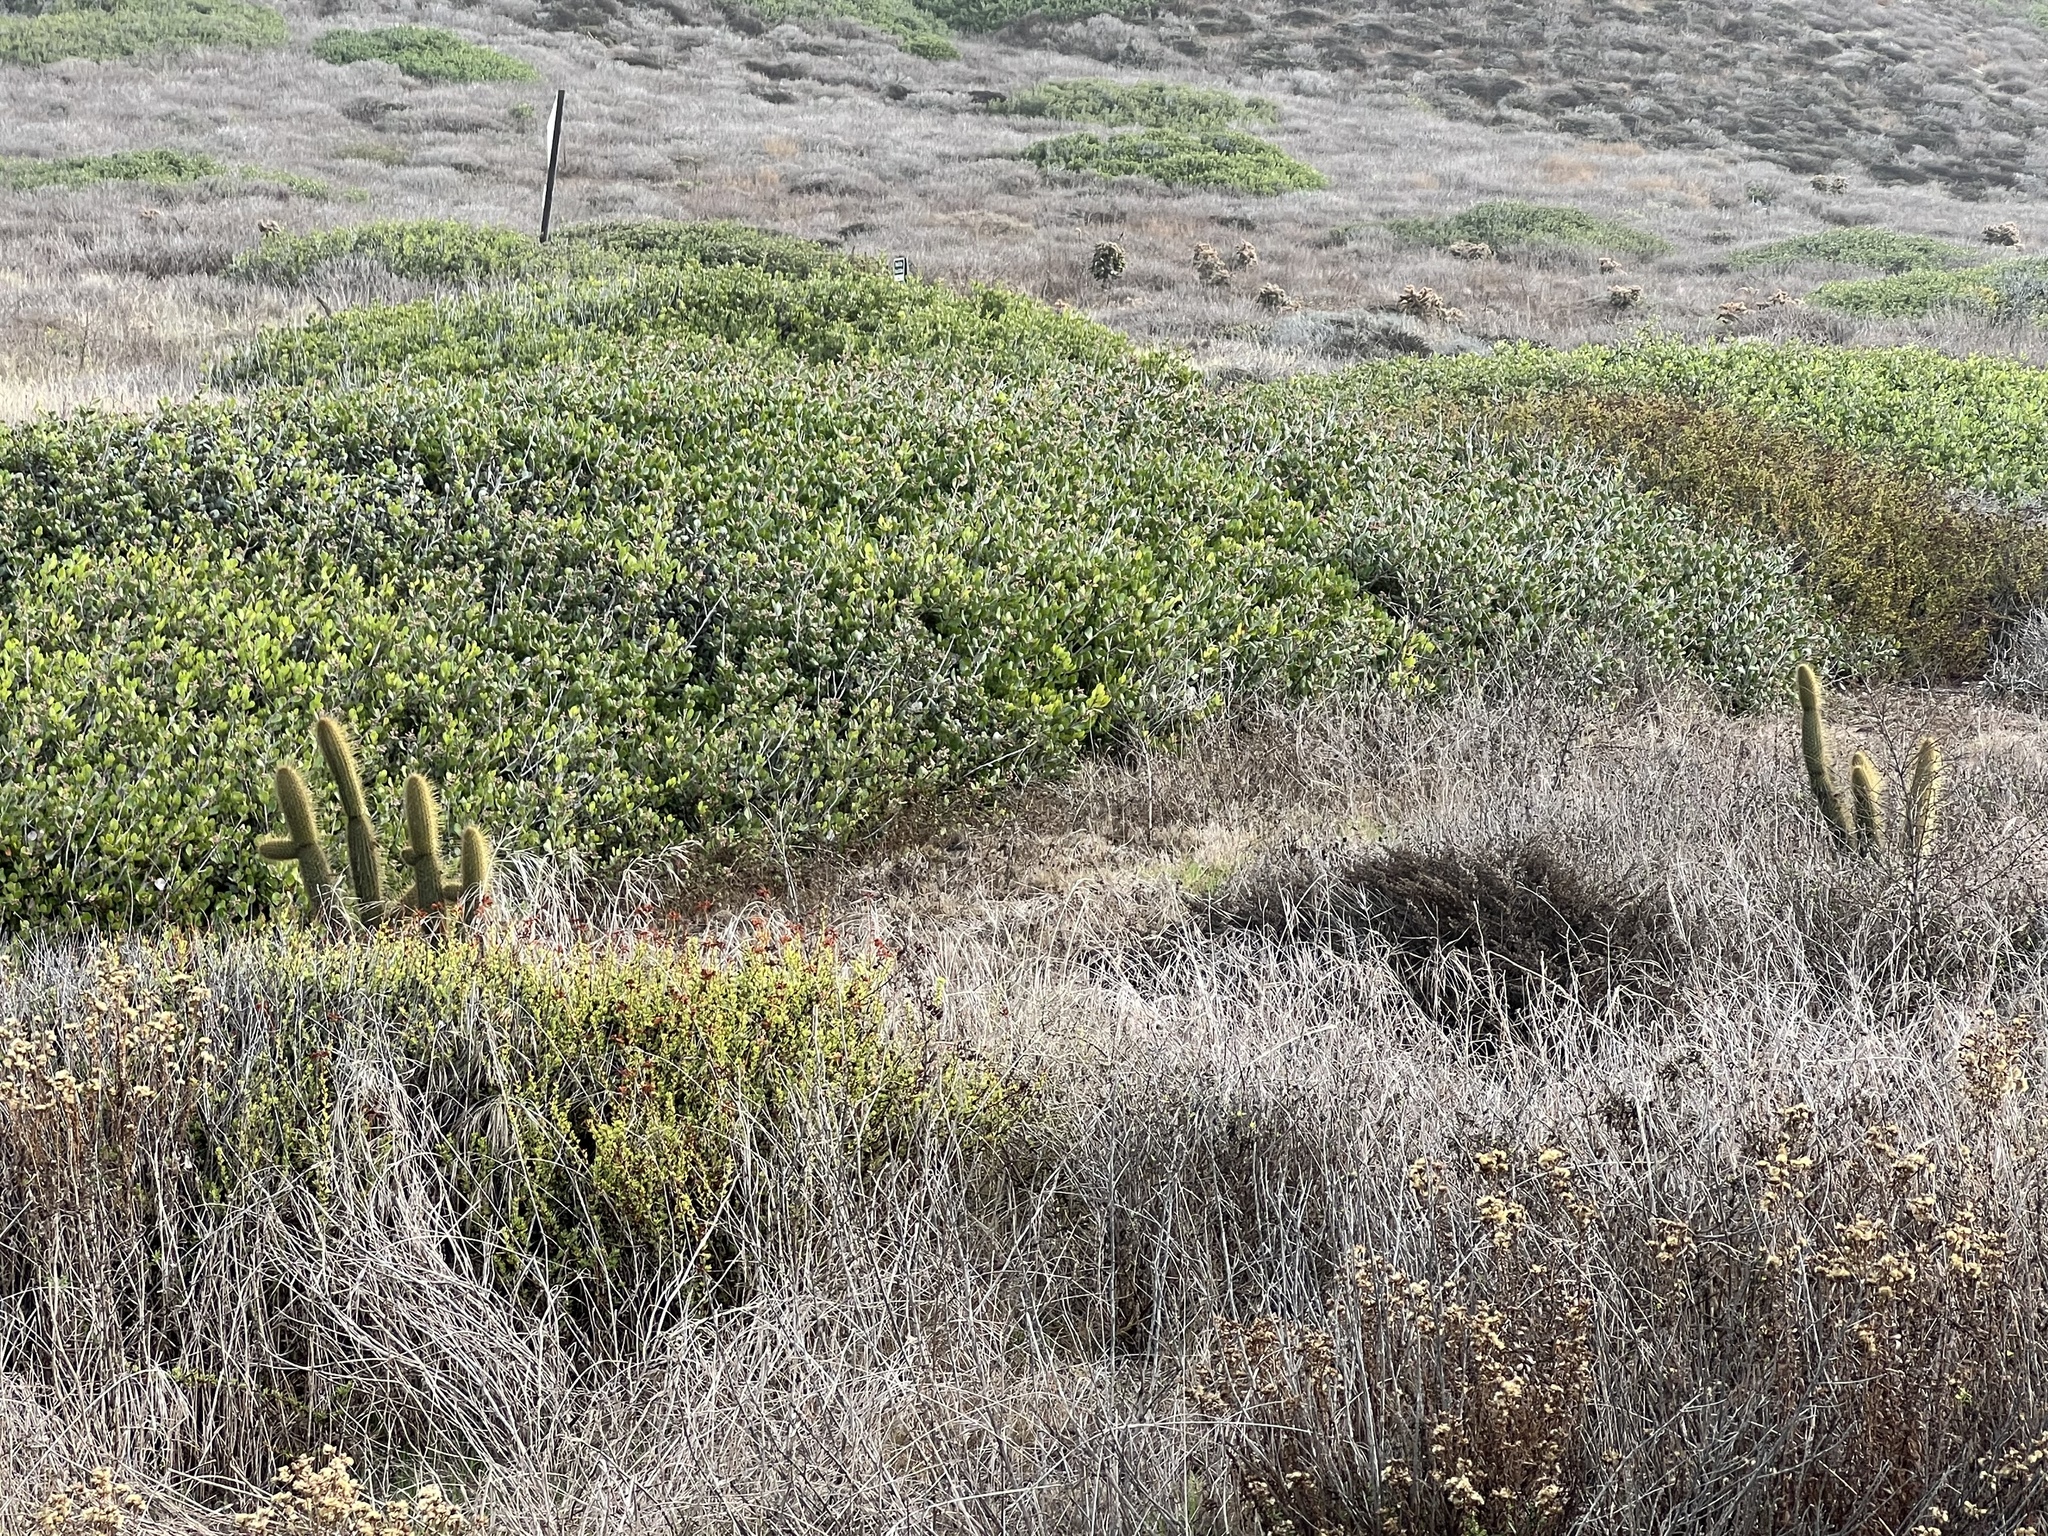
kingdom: Plantae
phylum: Tracheophyta
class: Magnoliopsida
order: Caryophyllales
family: Cactaceae
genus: Bergerocactus
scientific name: Bergerocactus emoryi
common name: Golden snakecactus
